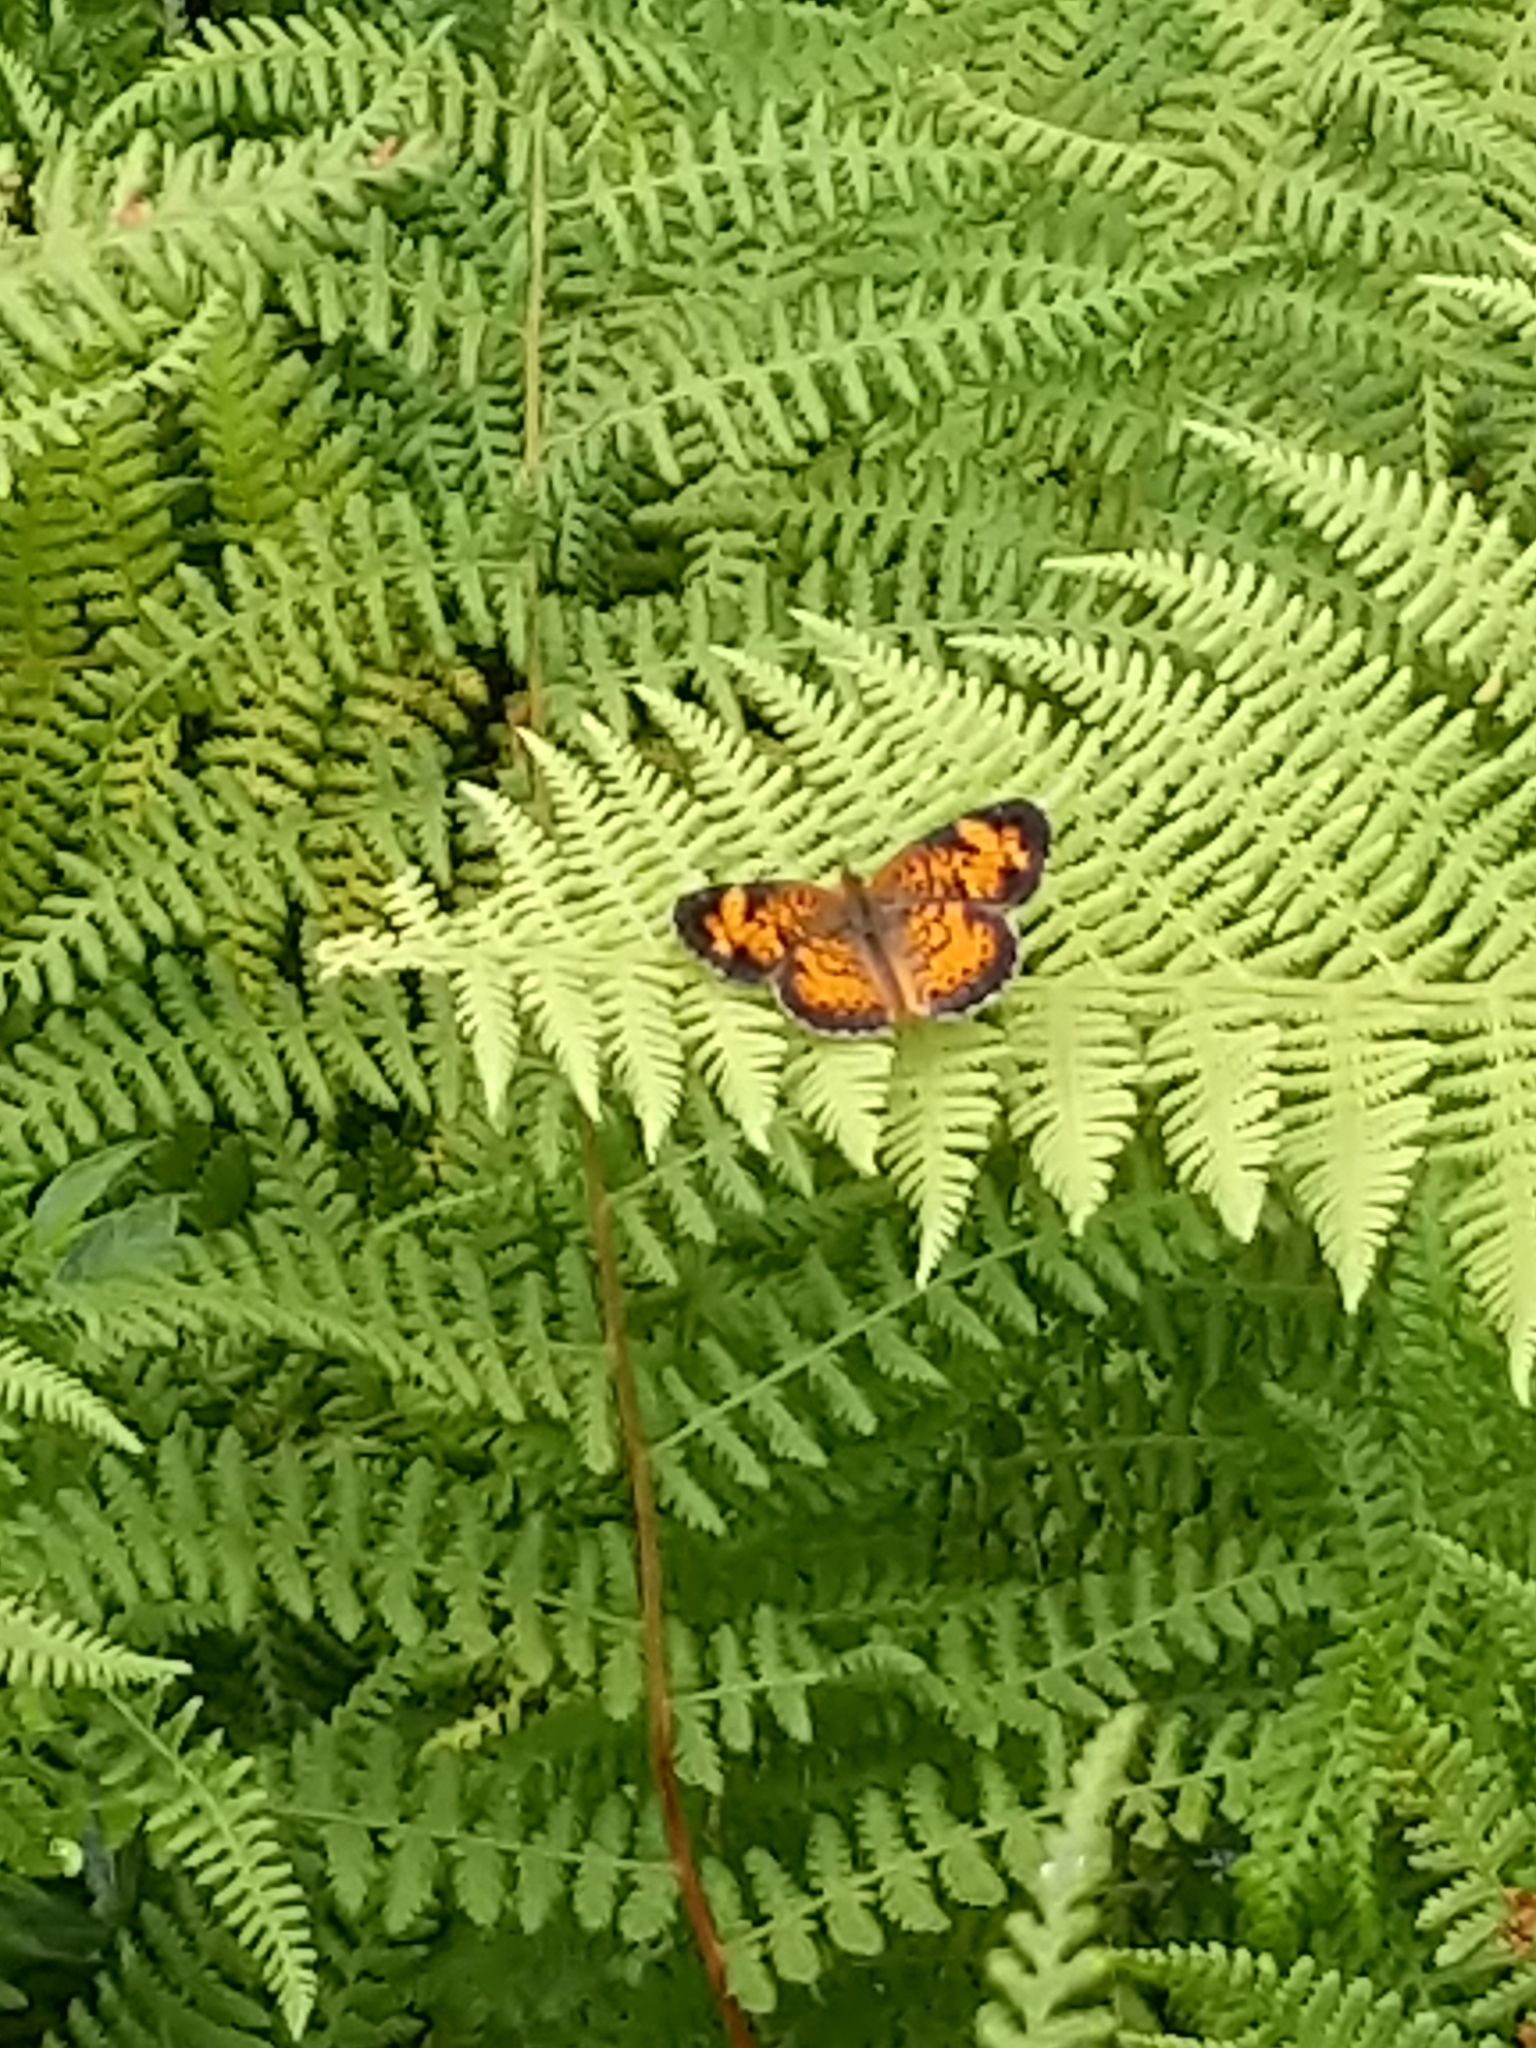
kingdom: Animalia
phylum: Arthropoda
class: Insecta
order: Lepidoptera
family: Nymphalidae
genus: Phyciodes
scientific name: Phyciodes tharos
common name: Pearl crescent
